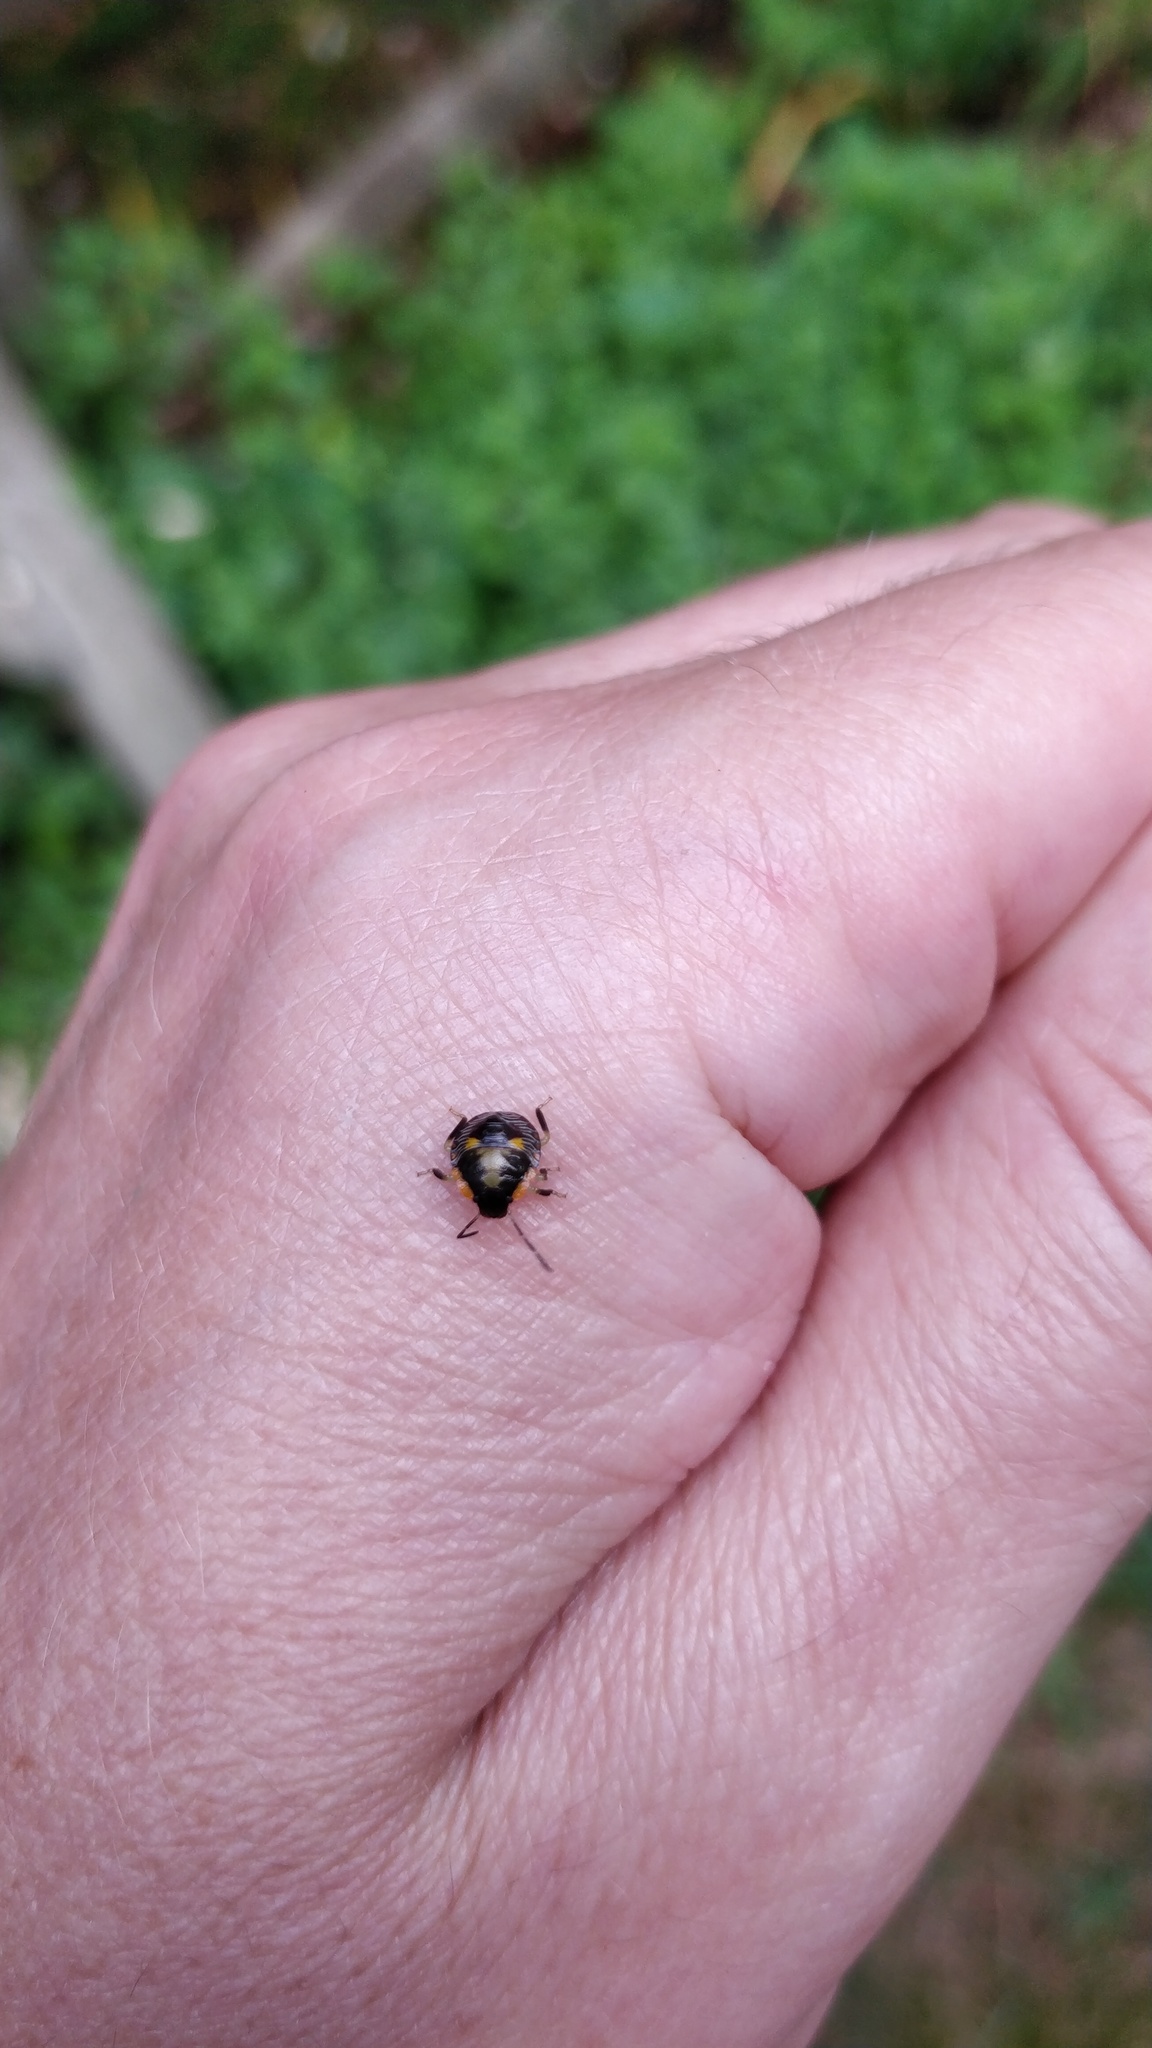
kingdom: Animalia
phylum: Arthropoda
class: Insecta
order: Hemiptera
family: Pentatomidae
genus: Chinavia
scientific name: Chinavia hilaris
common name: Green stink bug
